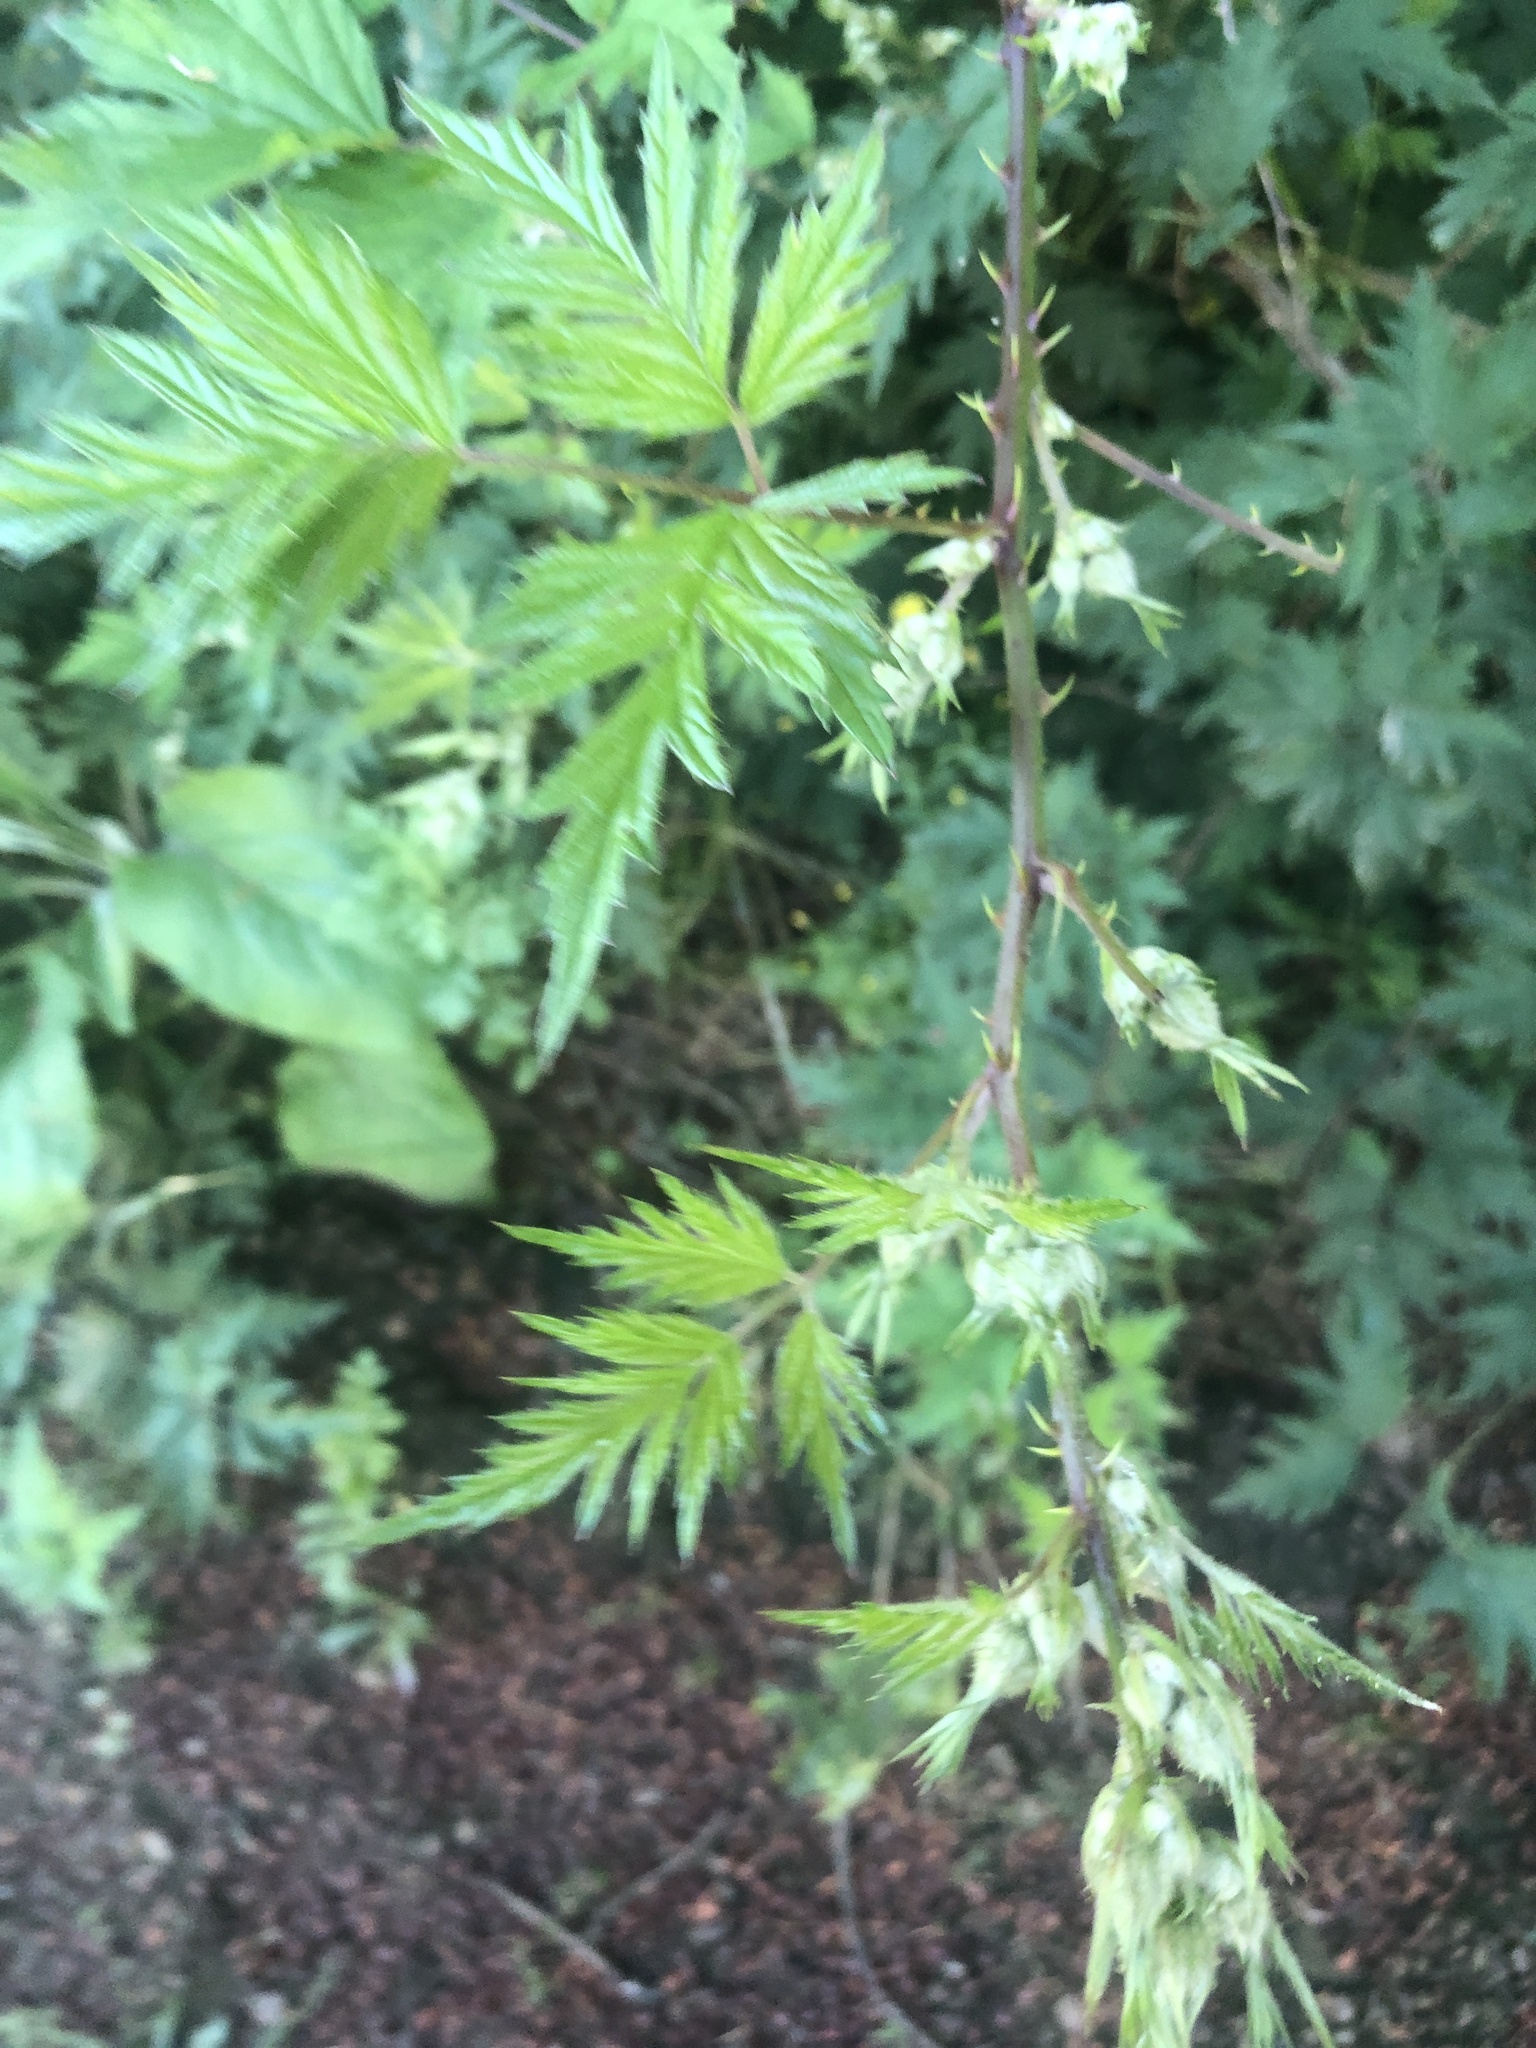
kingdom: Plantae
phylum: Tracheophyta
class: Magnoliopsida
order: Rosales
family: Rosaceae
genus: Rubus
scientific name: Rubus laciniatus
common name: Evergreen blackberry
